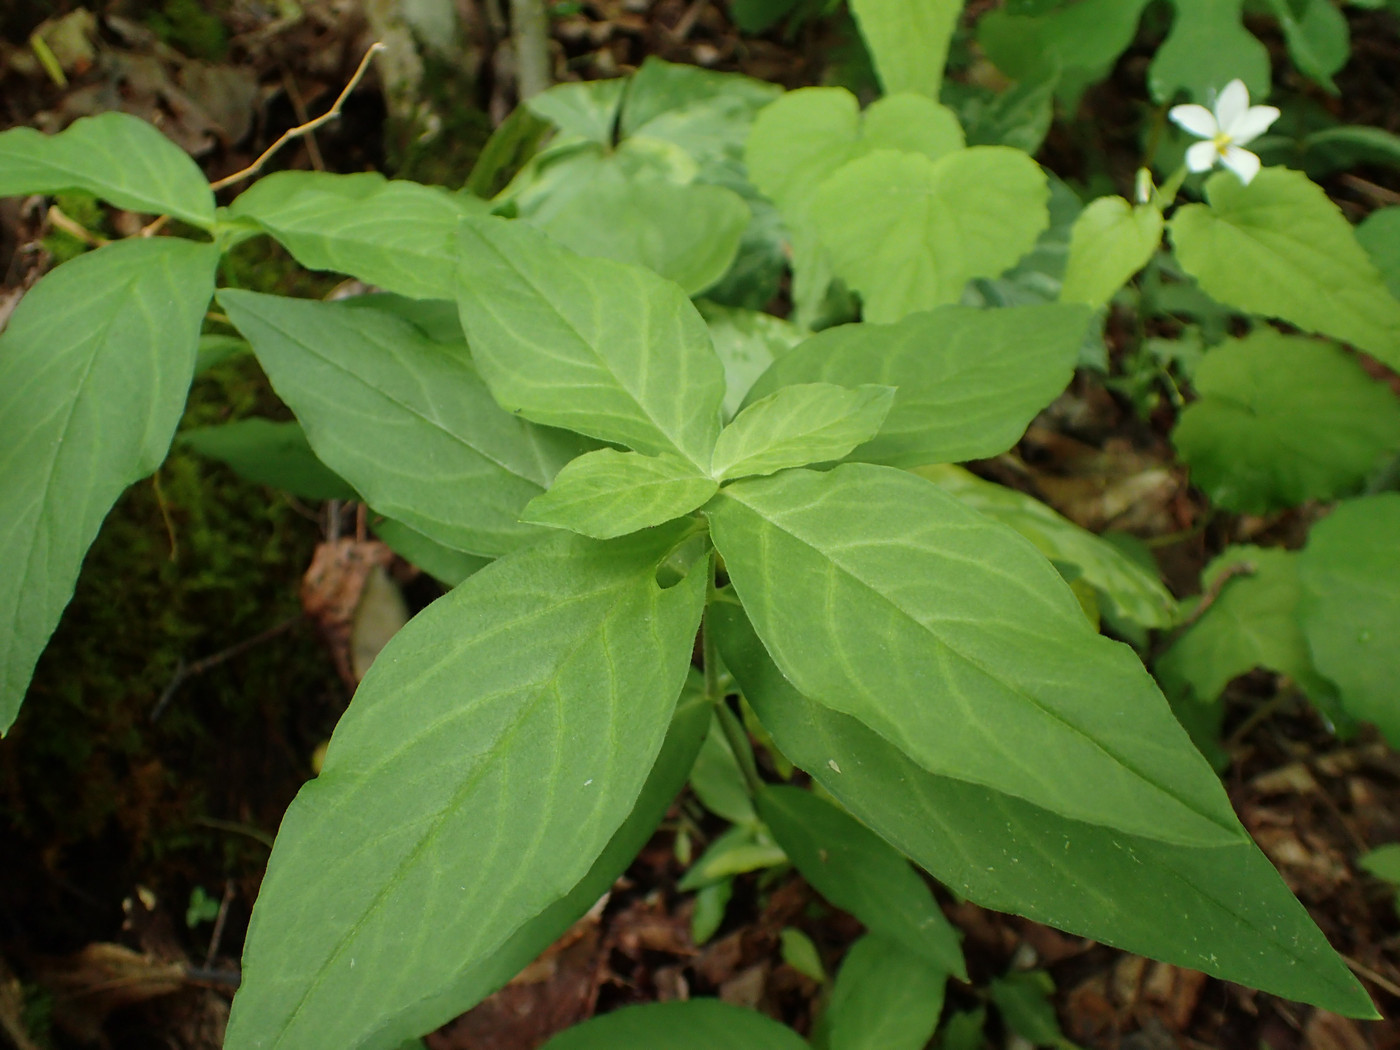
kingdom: Plantae
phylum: Tracheophyta
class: Magnoliopsida
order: Caryophyllales
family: Caryophyllaceae
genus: Stellaria
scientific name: Stellaria pubera
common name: Star chickweed
